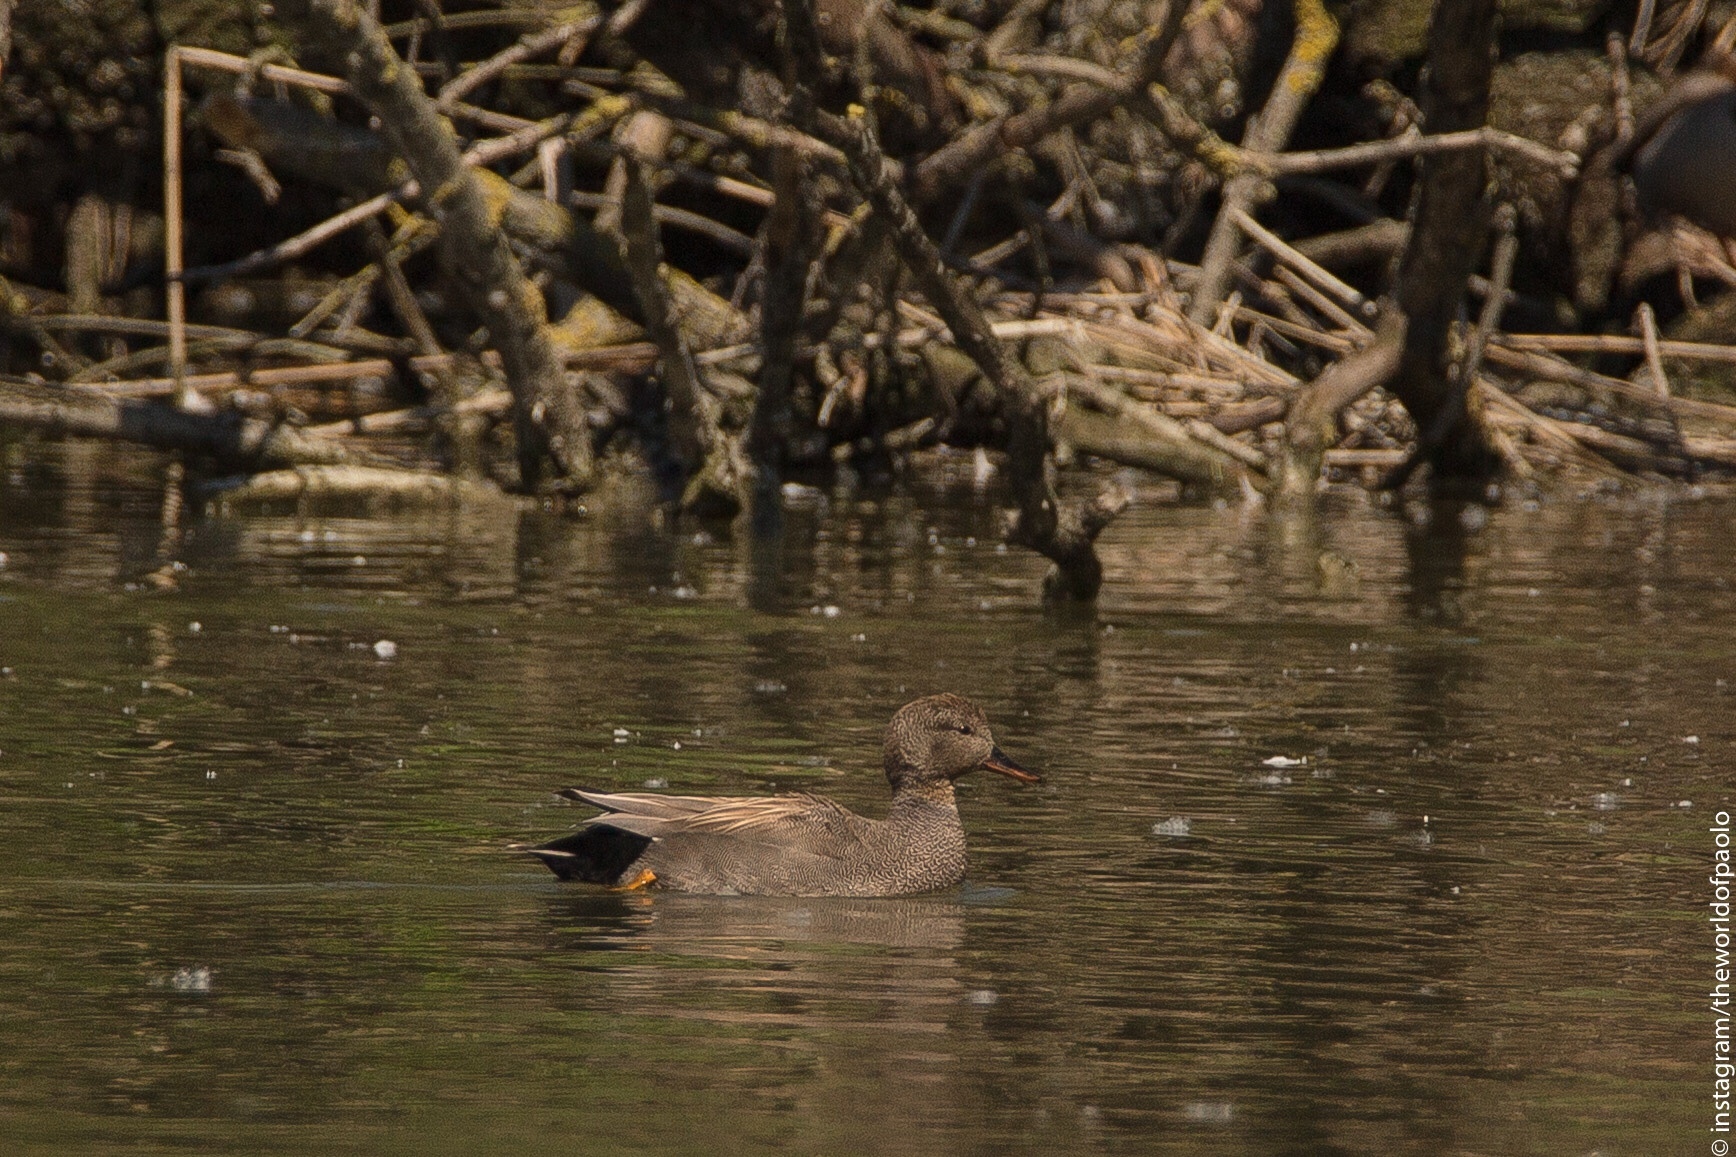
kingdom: Animalia
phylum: Chordata
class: Aves
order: Anseriformes
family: Anatidae
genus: Mareca
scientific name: Mareca strepera
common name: Gadwall
